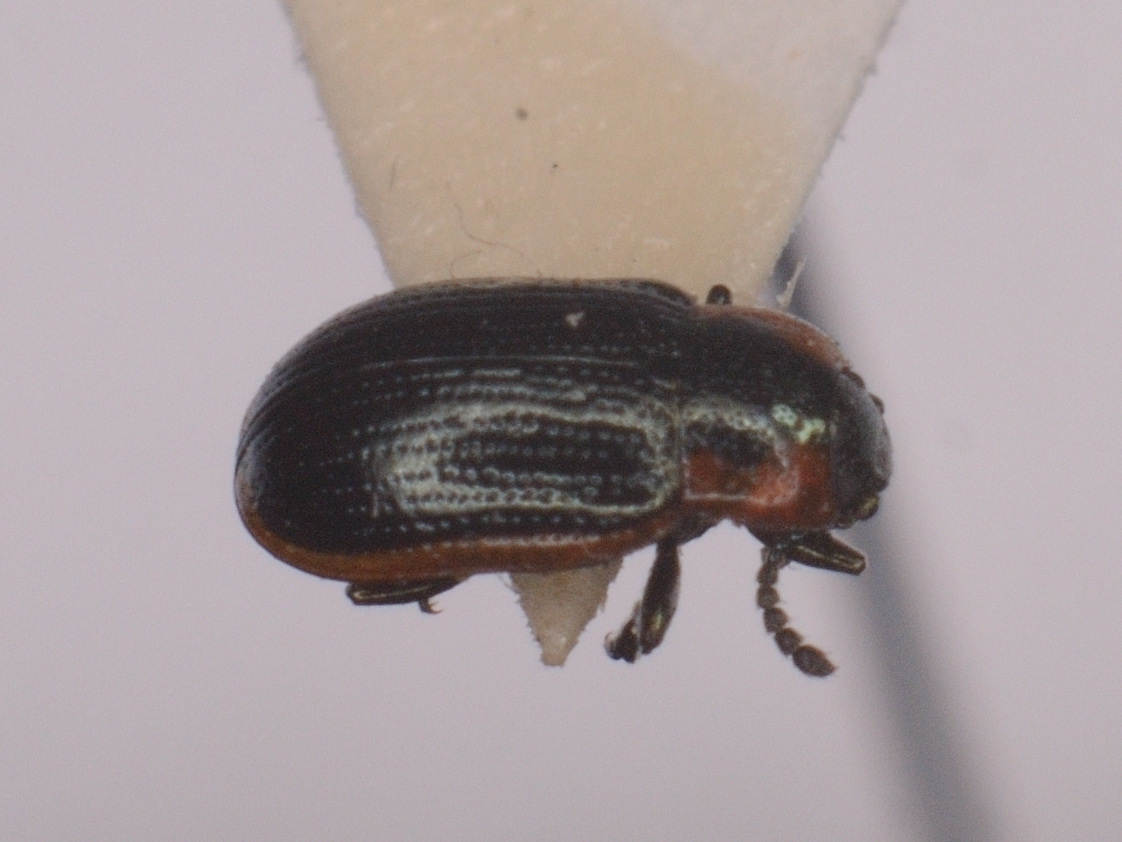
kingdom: Animalia
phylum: Arthropoda
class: Insecta
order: Coleoptera
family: Chrysomelidae
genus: Prasocuris
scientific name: Prasocuris marginella
